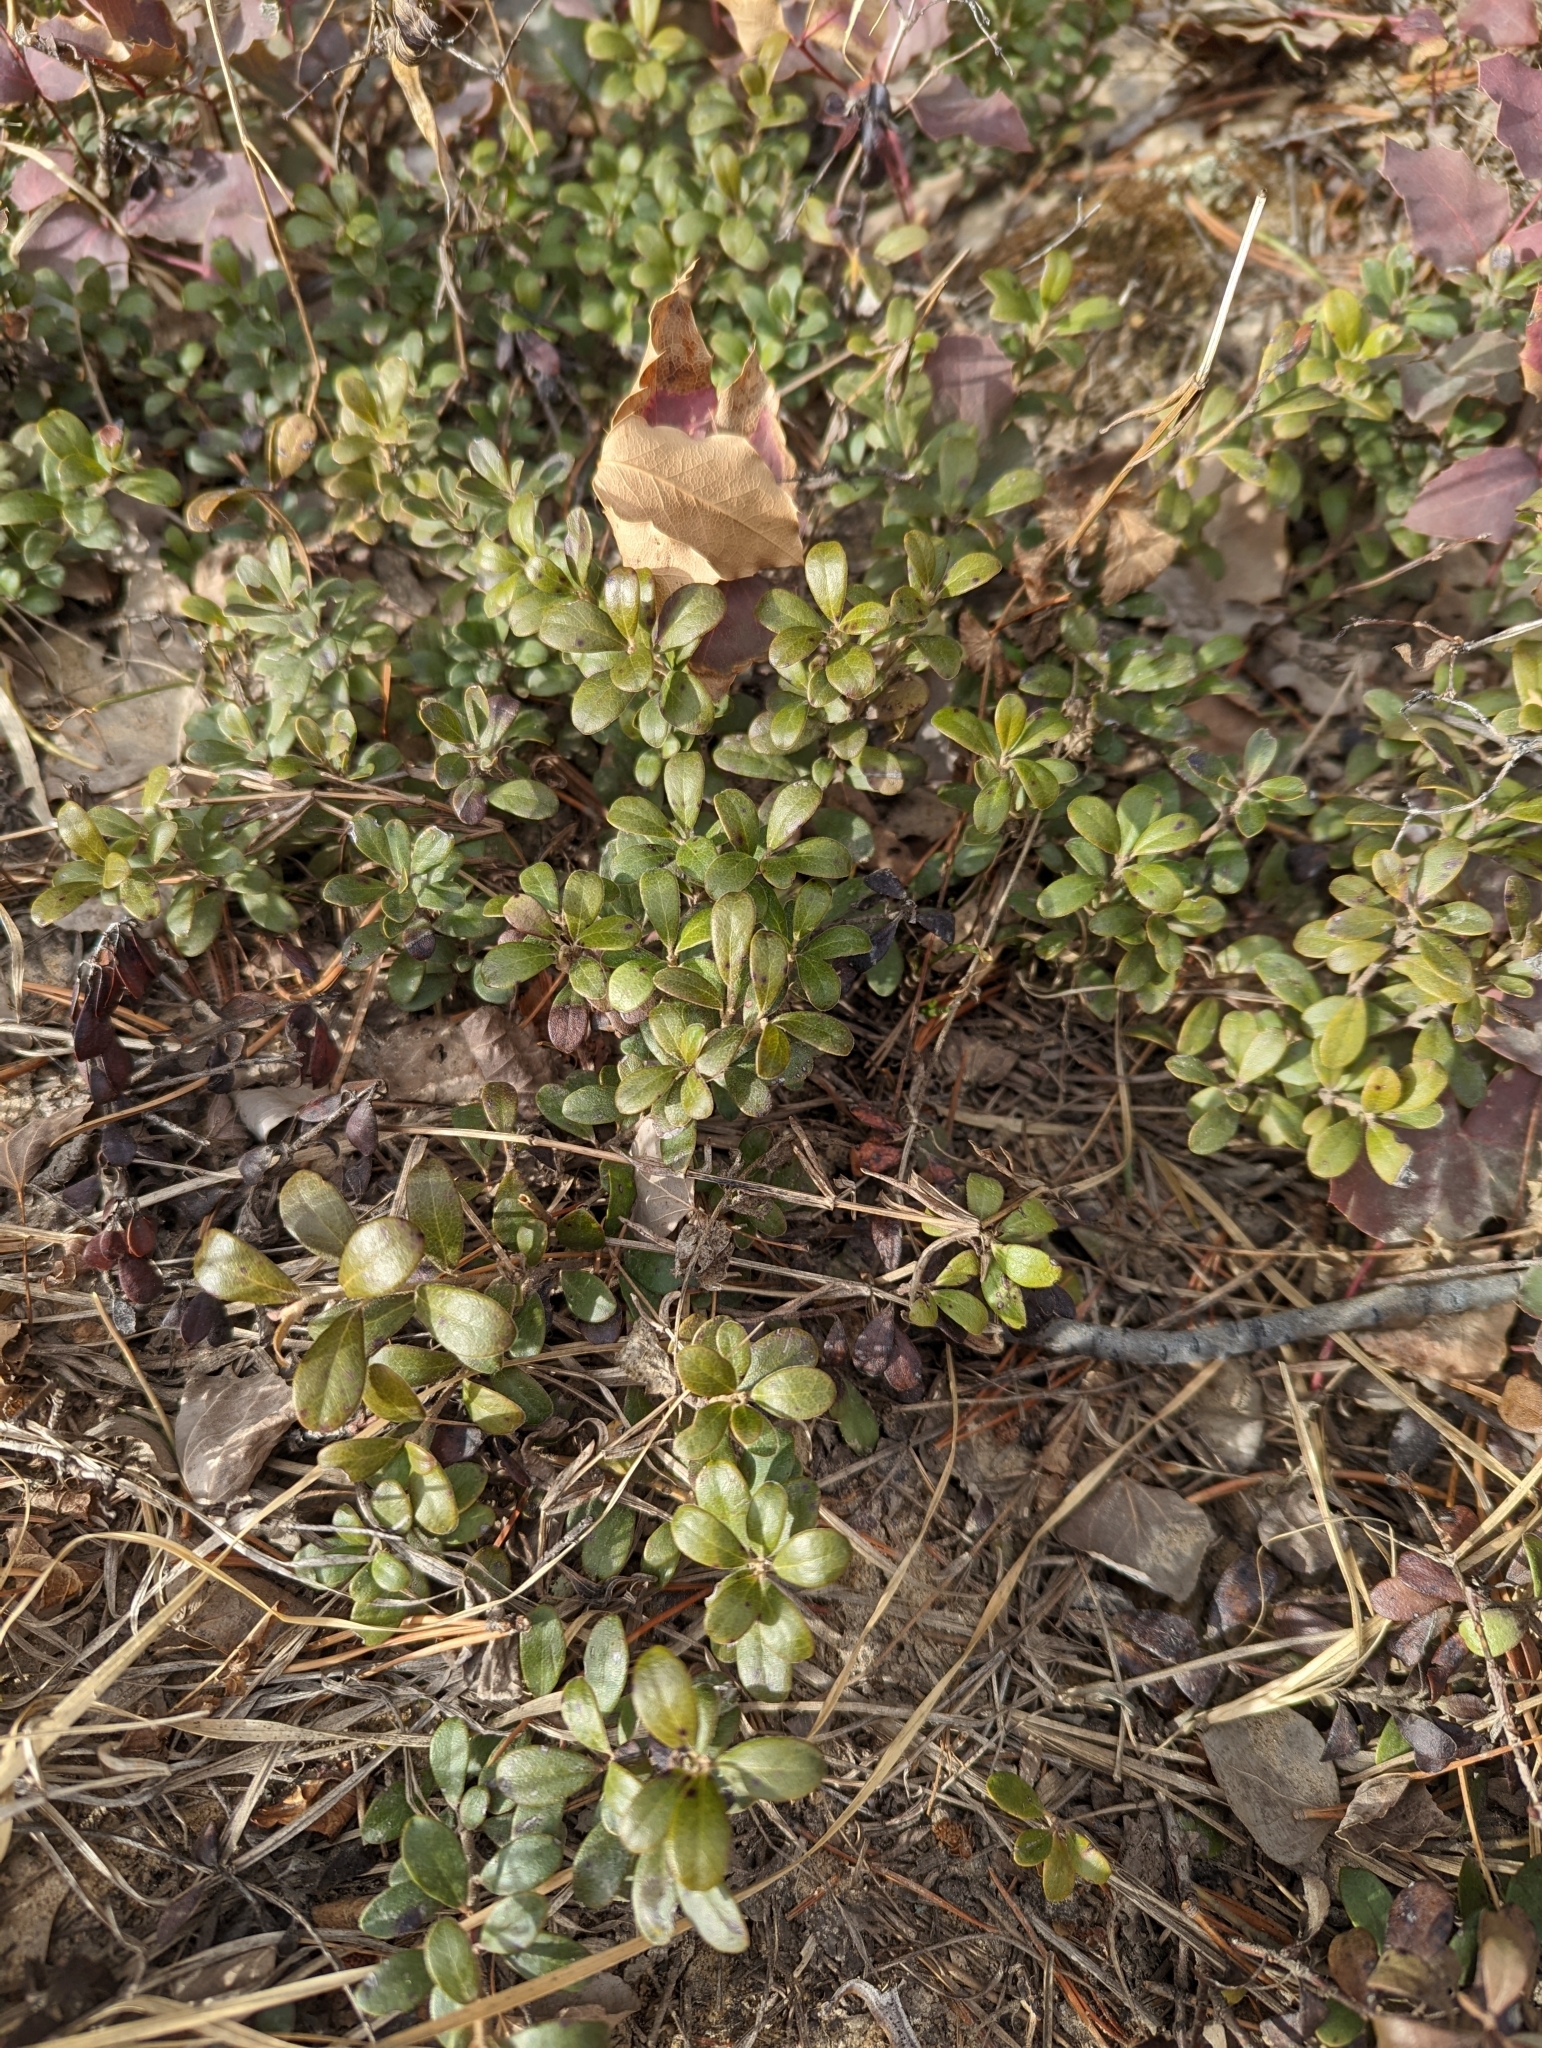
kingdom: Plantae
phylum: Tracheophyta
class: Magnoliopsida
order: Ericales
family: Ericaceae
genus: Arctostaphylos
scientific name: Arctostaphylos uva-ursi
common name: Bearberry
